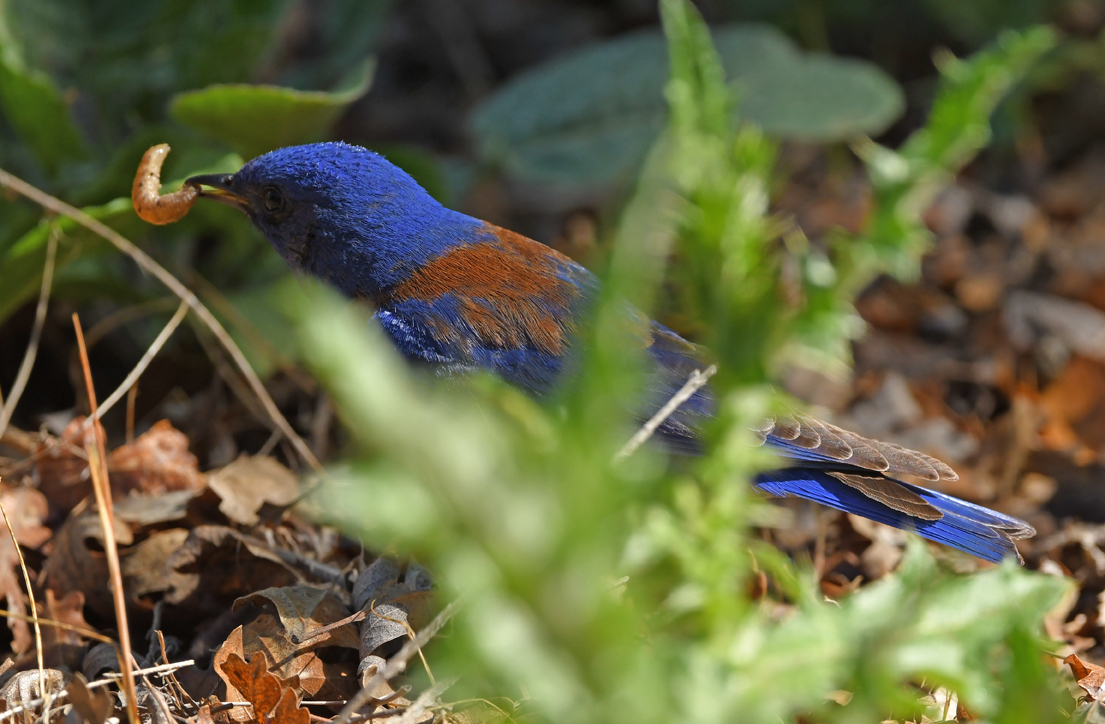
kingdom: Animalia
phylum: Chordata
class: Aves
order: Passeriformes
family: Turdidae
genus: Sialia
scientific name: Sialia mexicana
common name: Western bluebird
